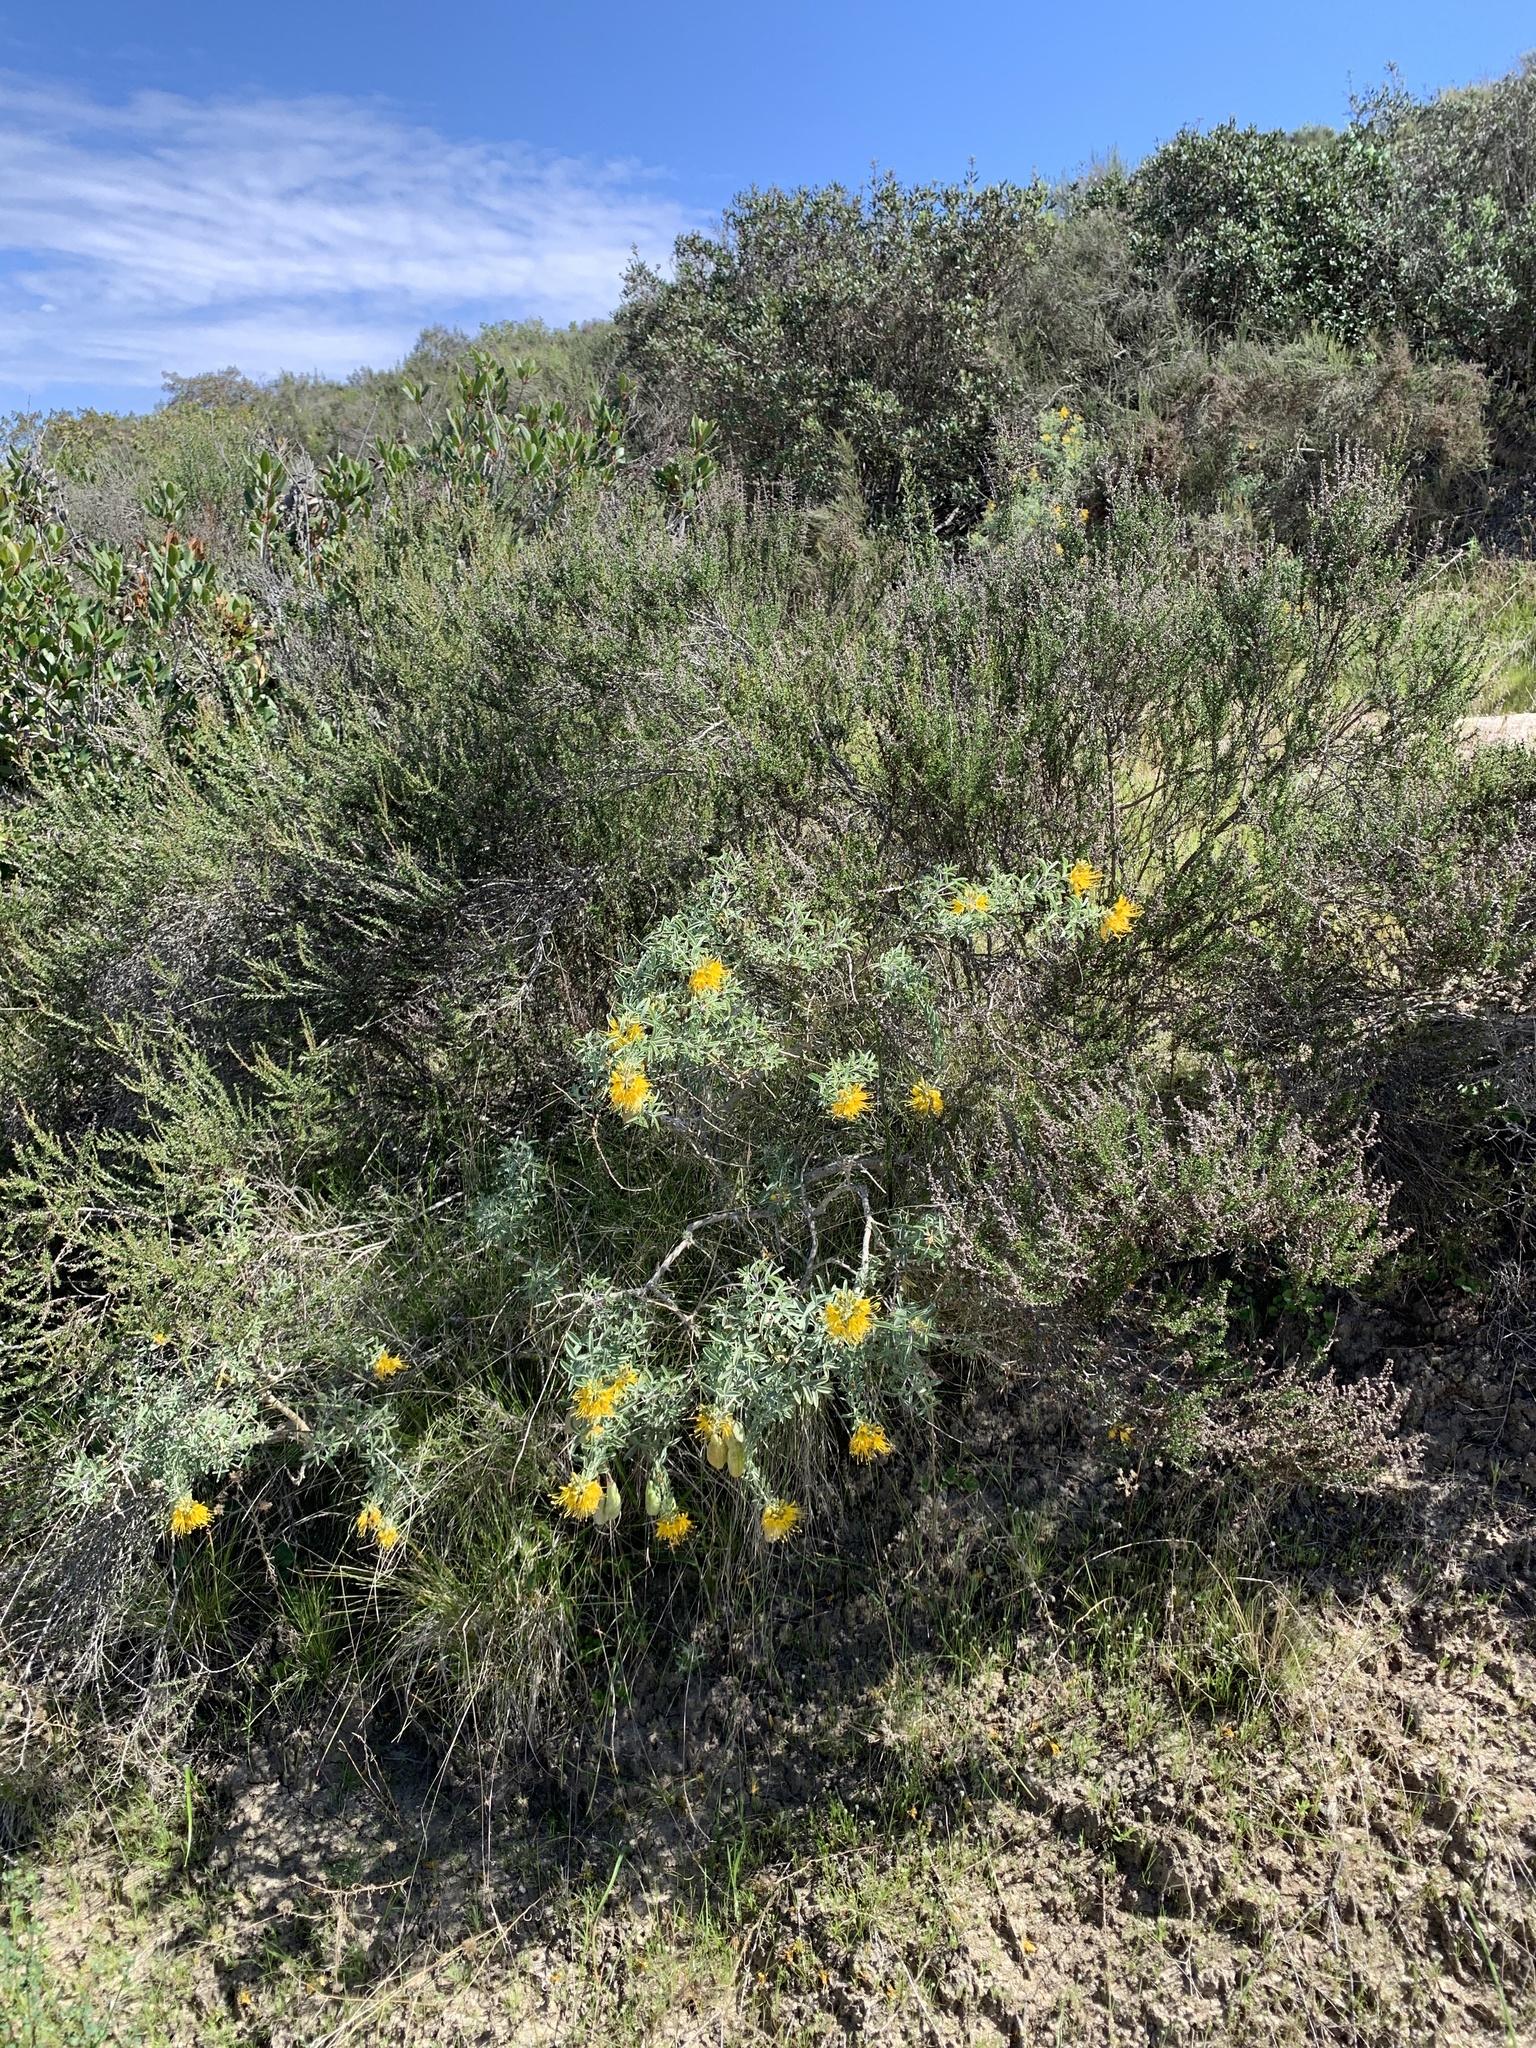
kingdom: Plantae
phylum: Tracheophyta
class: Magnoliopsida
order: Brassicales
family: Cleomaceae
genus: Cleomella
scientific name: Cleomella arborea
